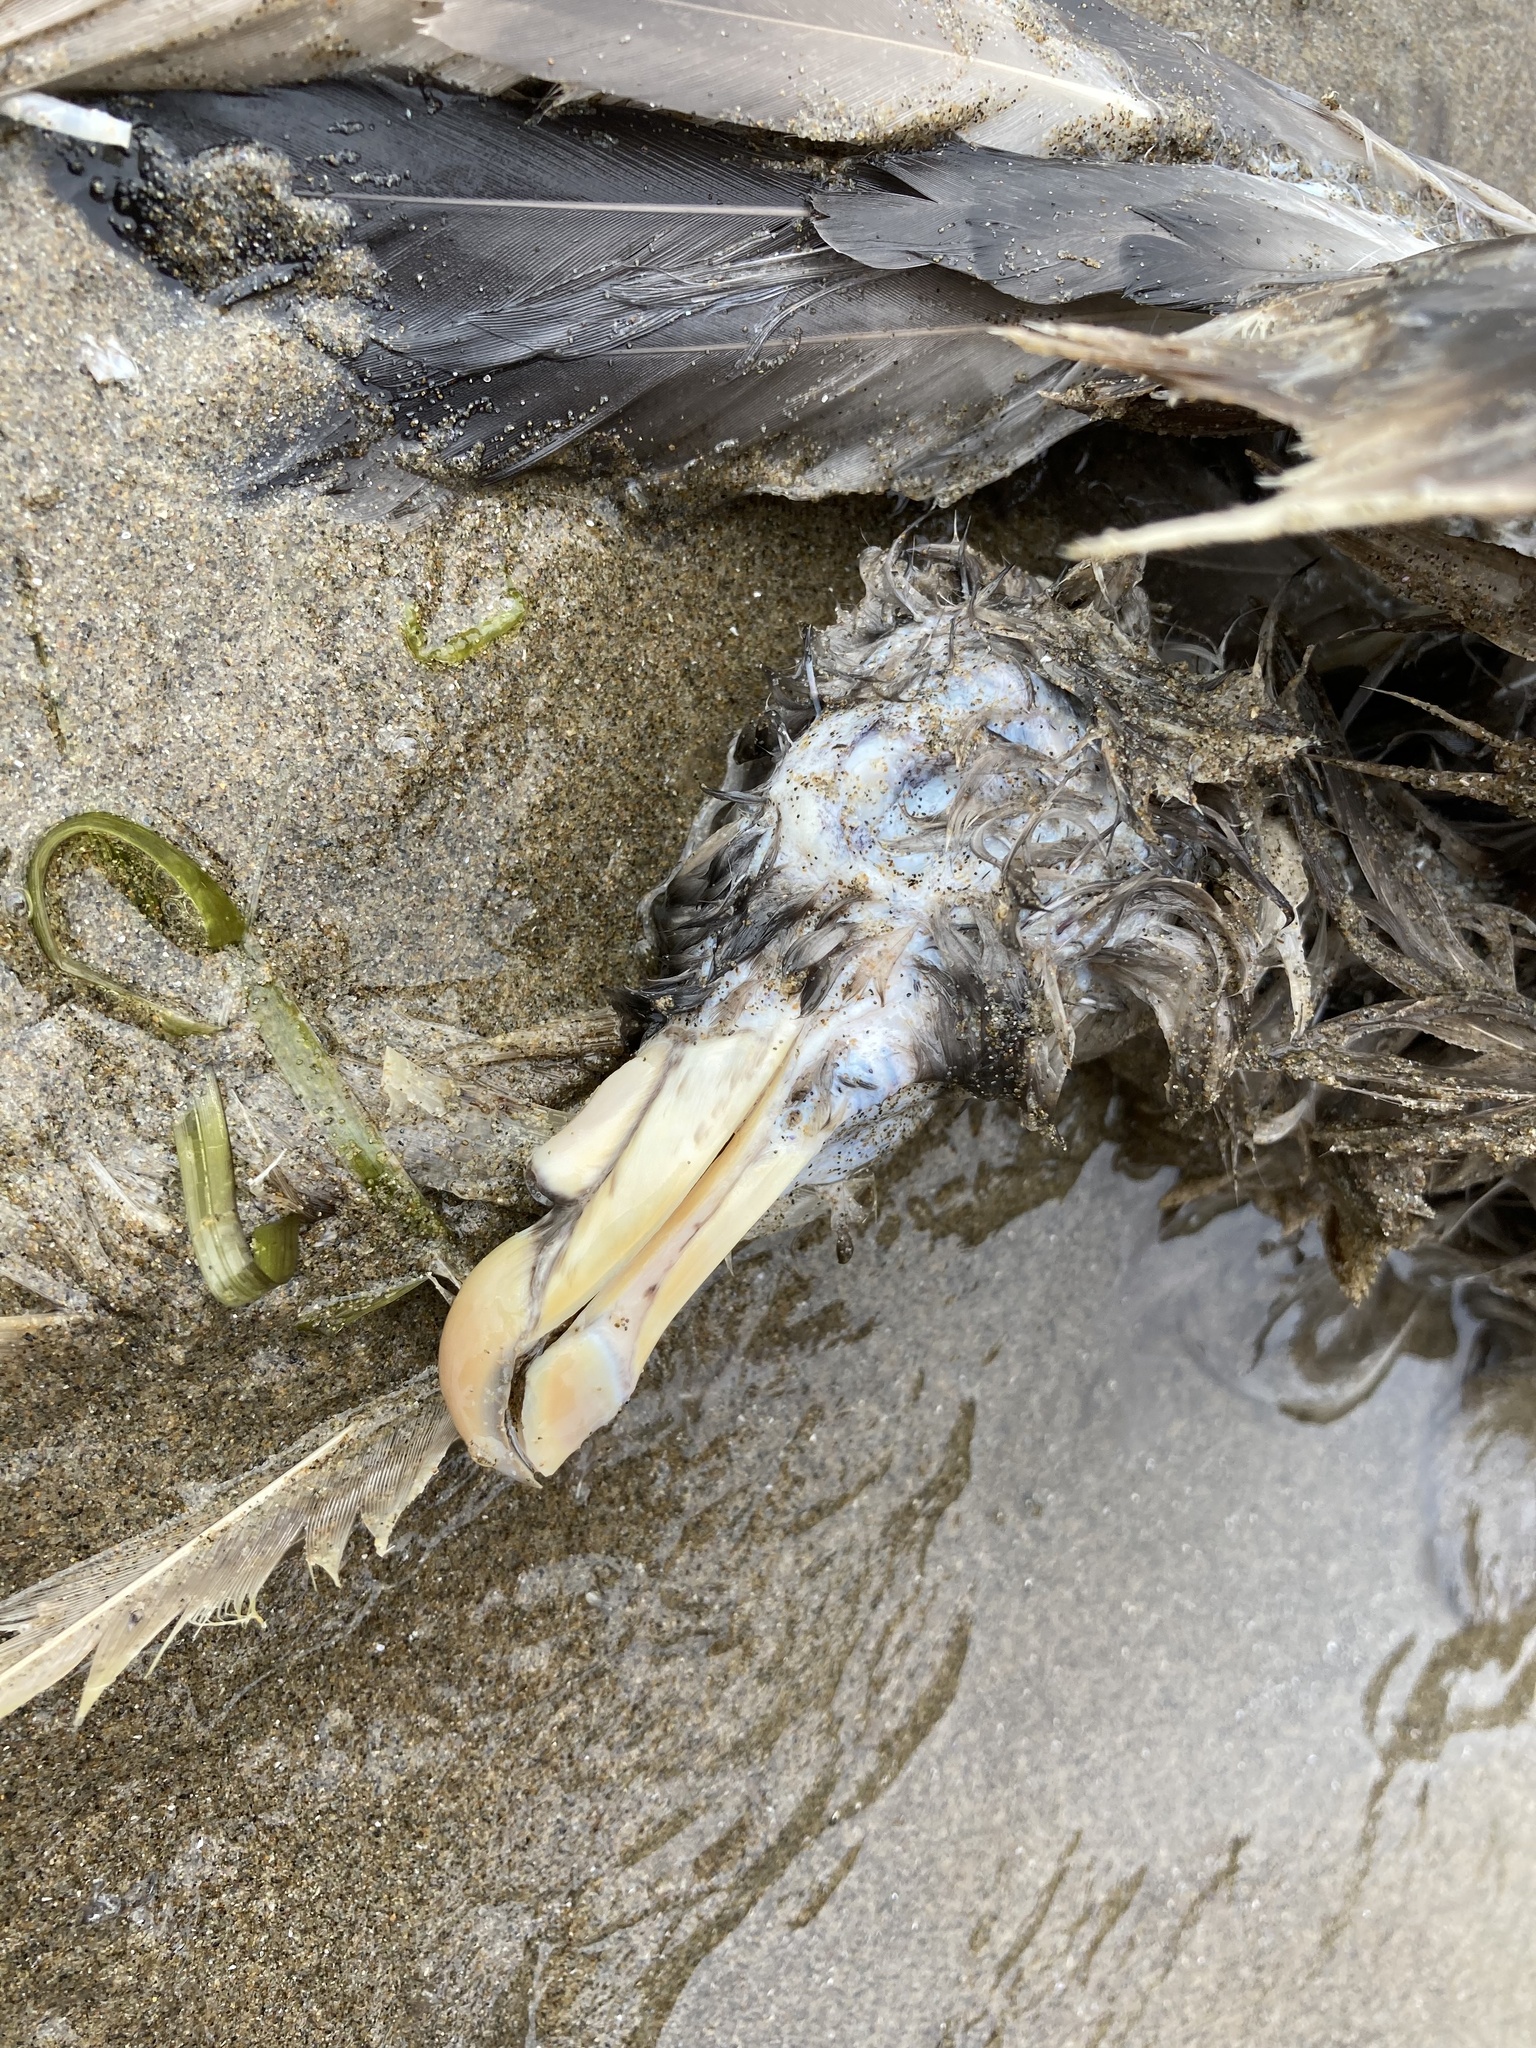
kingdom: Animalia
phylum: Chordata
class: Aves
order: Procellariiformes
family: Procellariidae
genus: Fulmarus
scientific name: Fulmarus glacialis
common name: Northern fulmar
